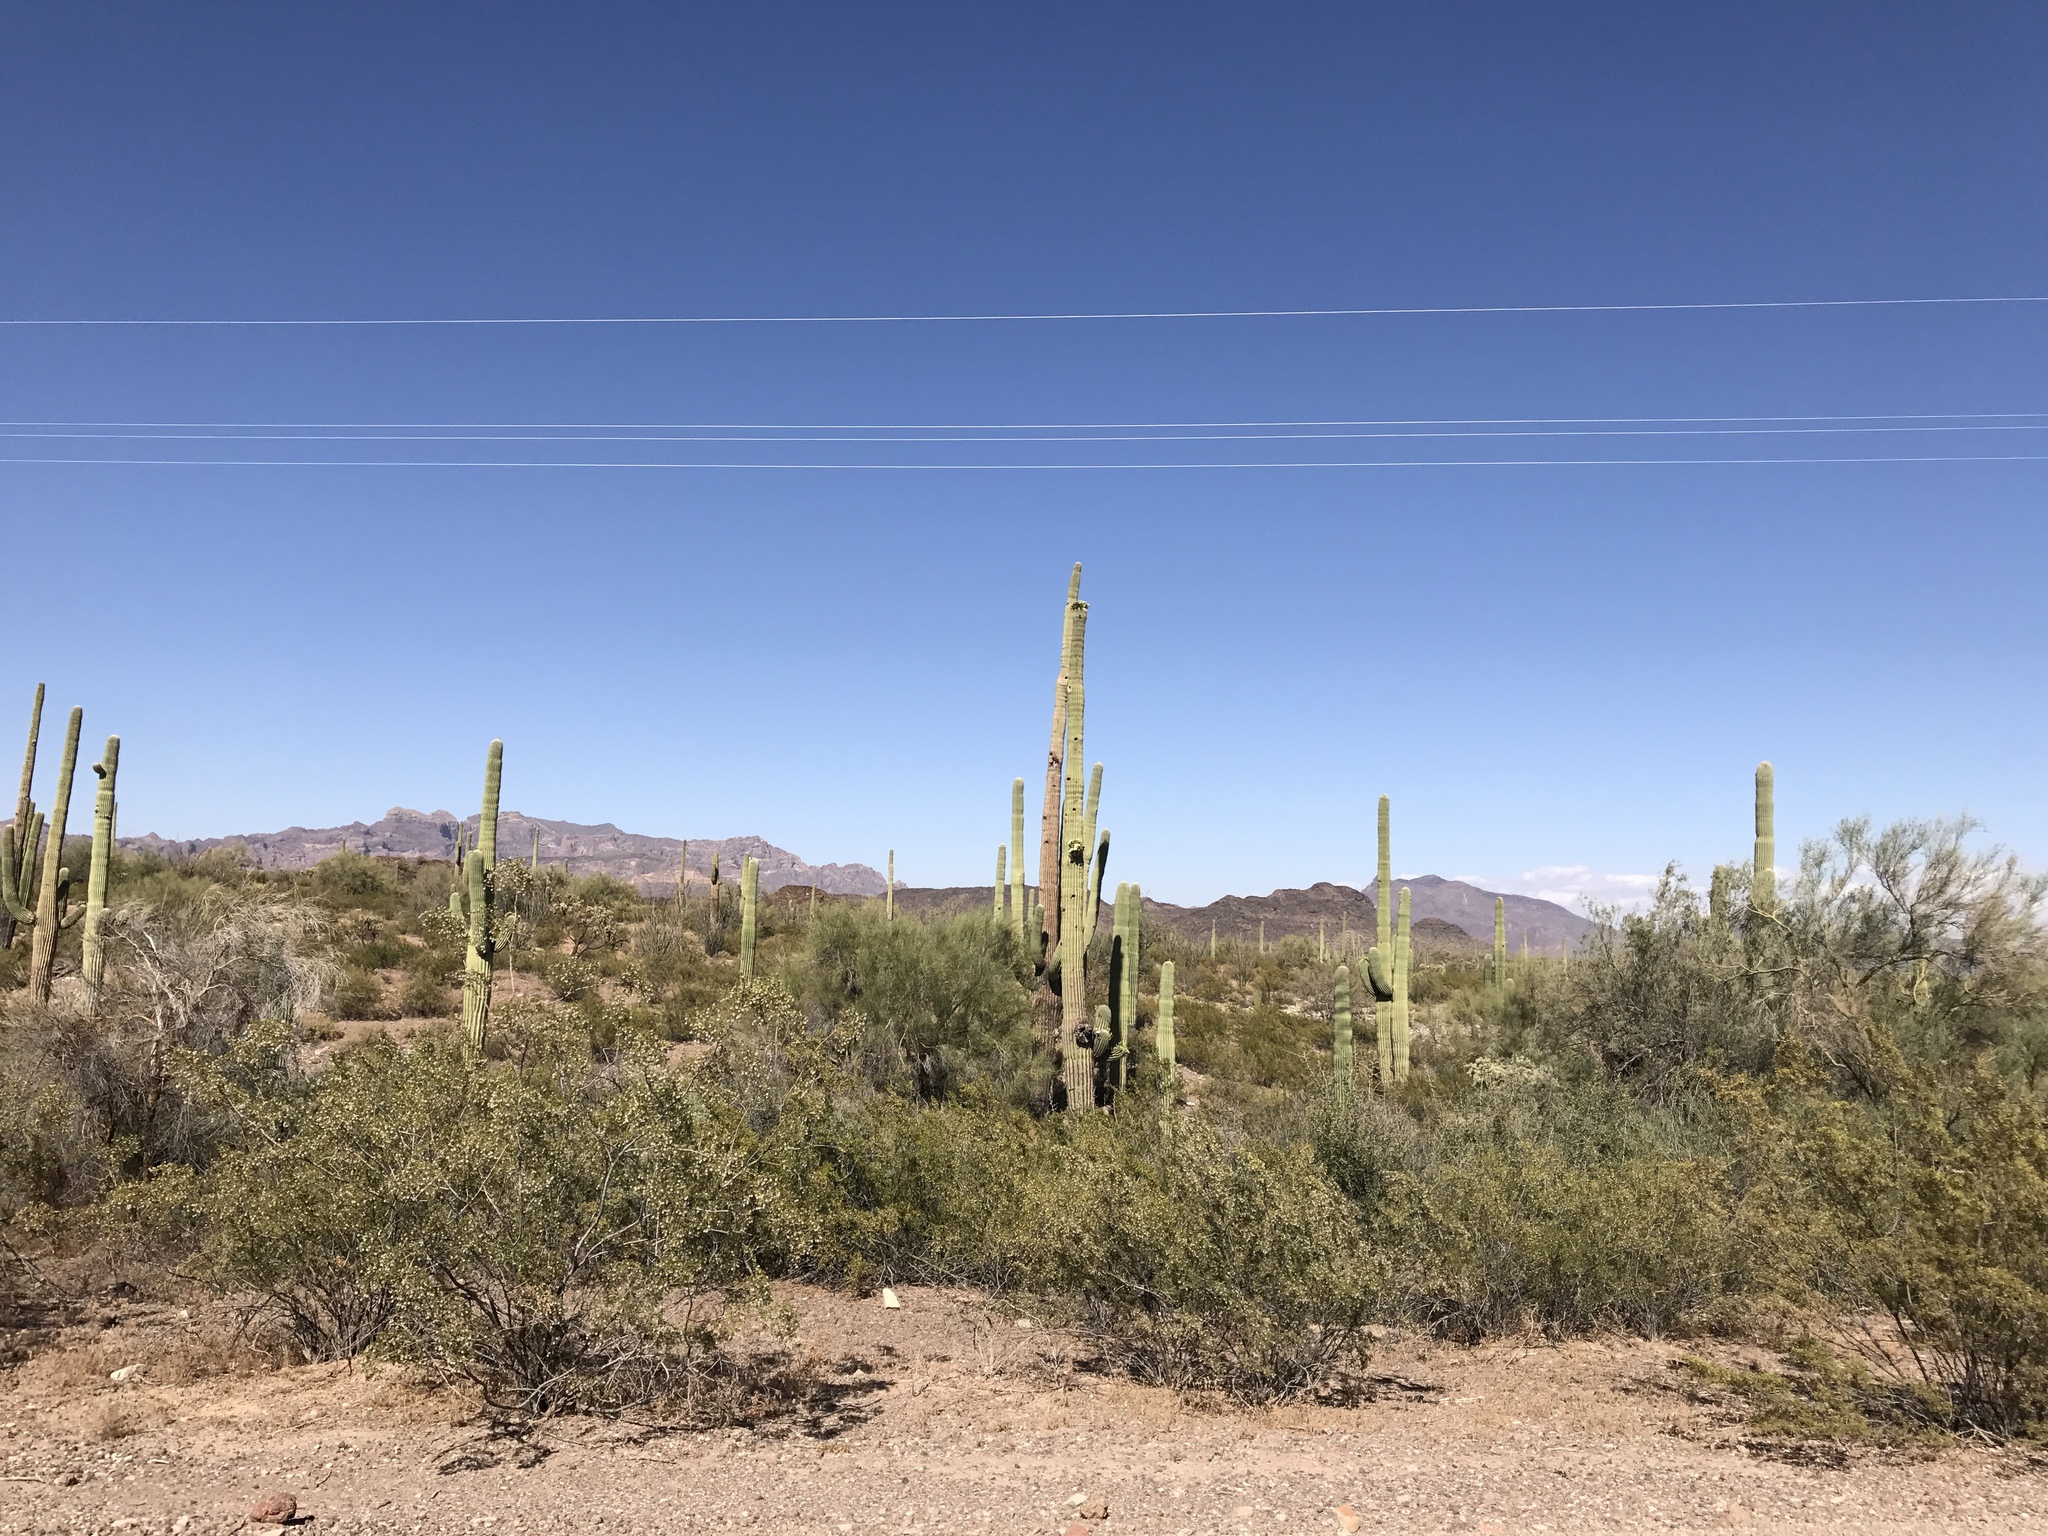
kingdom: Plantae
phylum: Tracheophyta
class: Magnoliopsida
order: Caryophyllales
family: Cactaceae
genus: Carnegiea
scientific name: Carnegiea gigantea
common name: Saguaro
